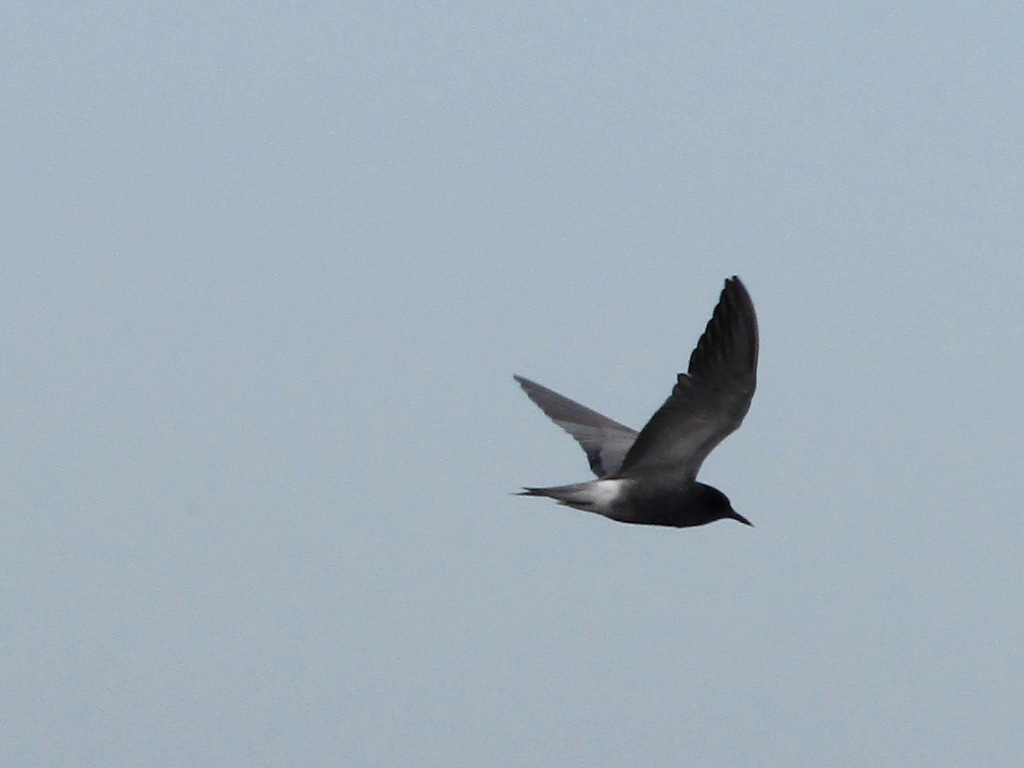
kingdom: Animalia
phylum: Chordata
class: Aves
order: Charadriiformes
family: Laridae
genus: Chlidonias
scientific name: Chlidonias niger
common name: Black tern
